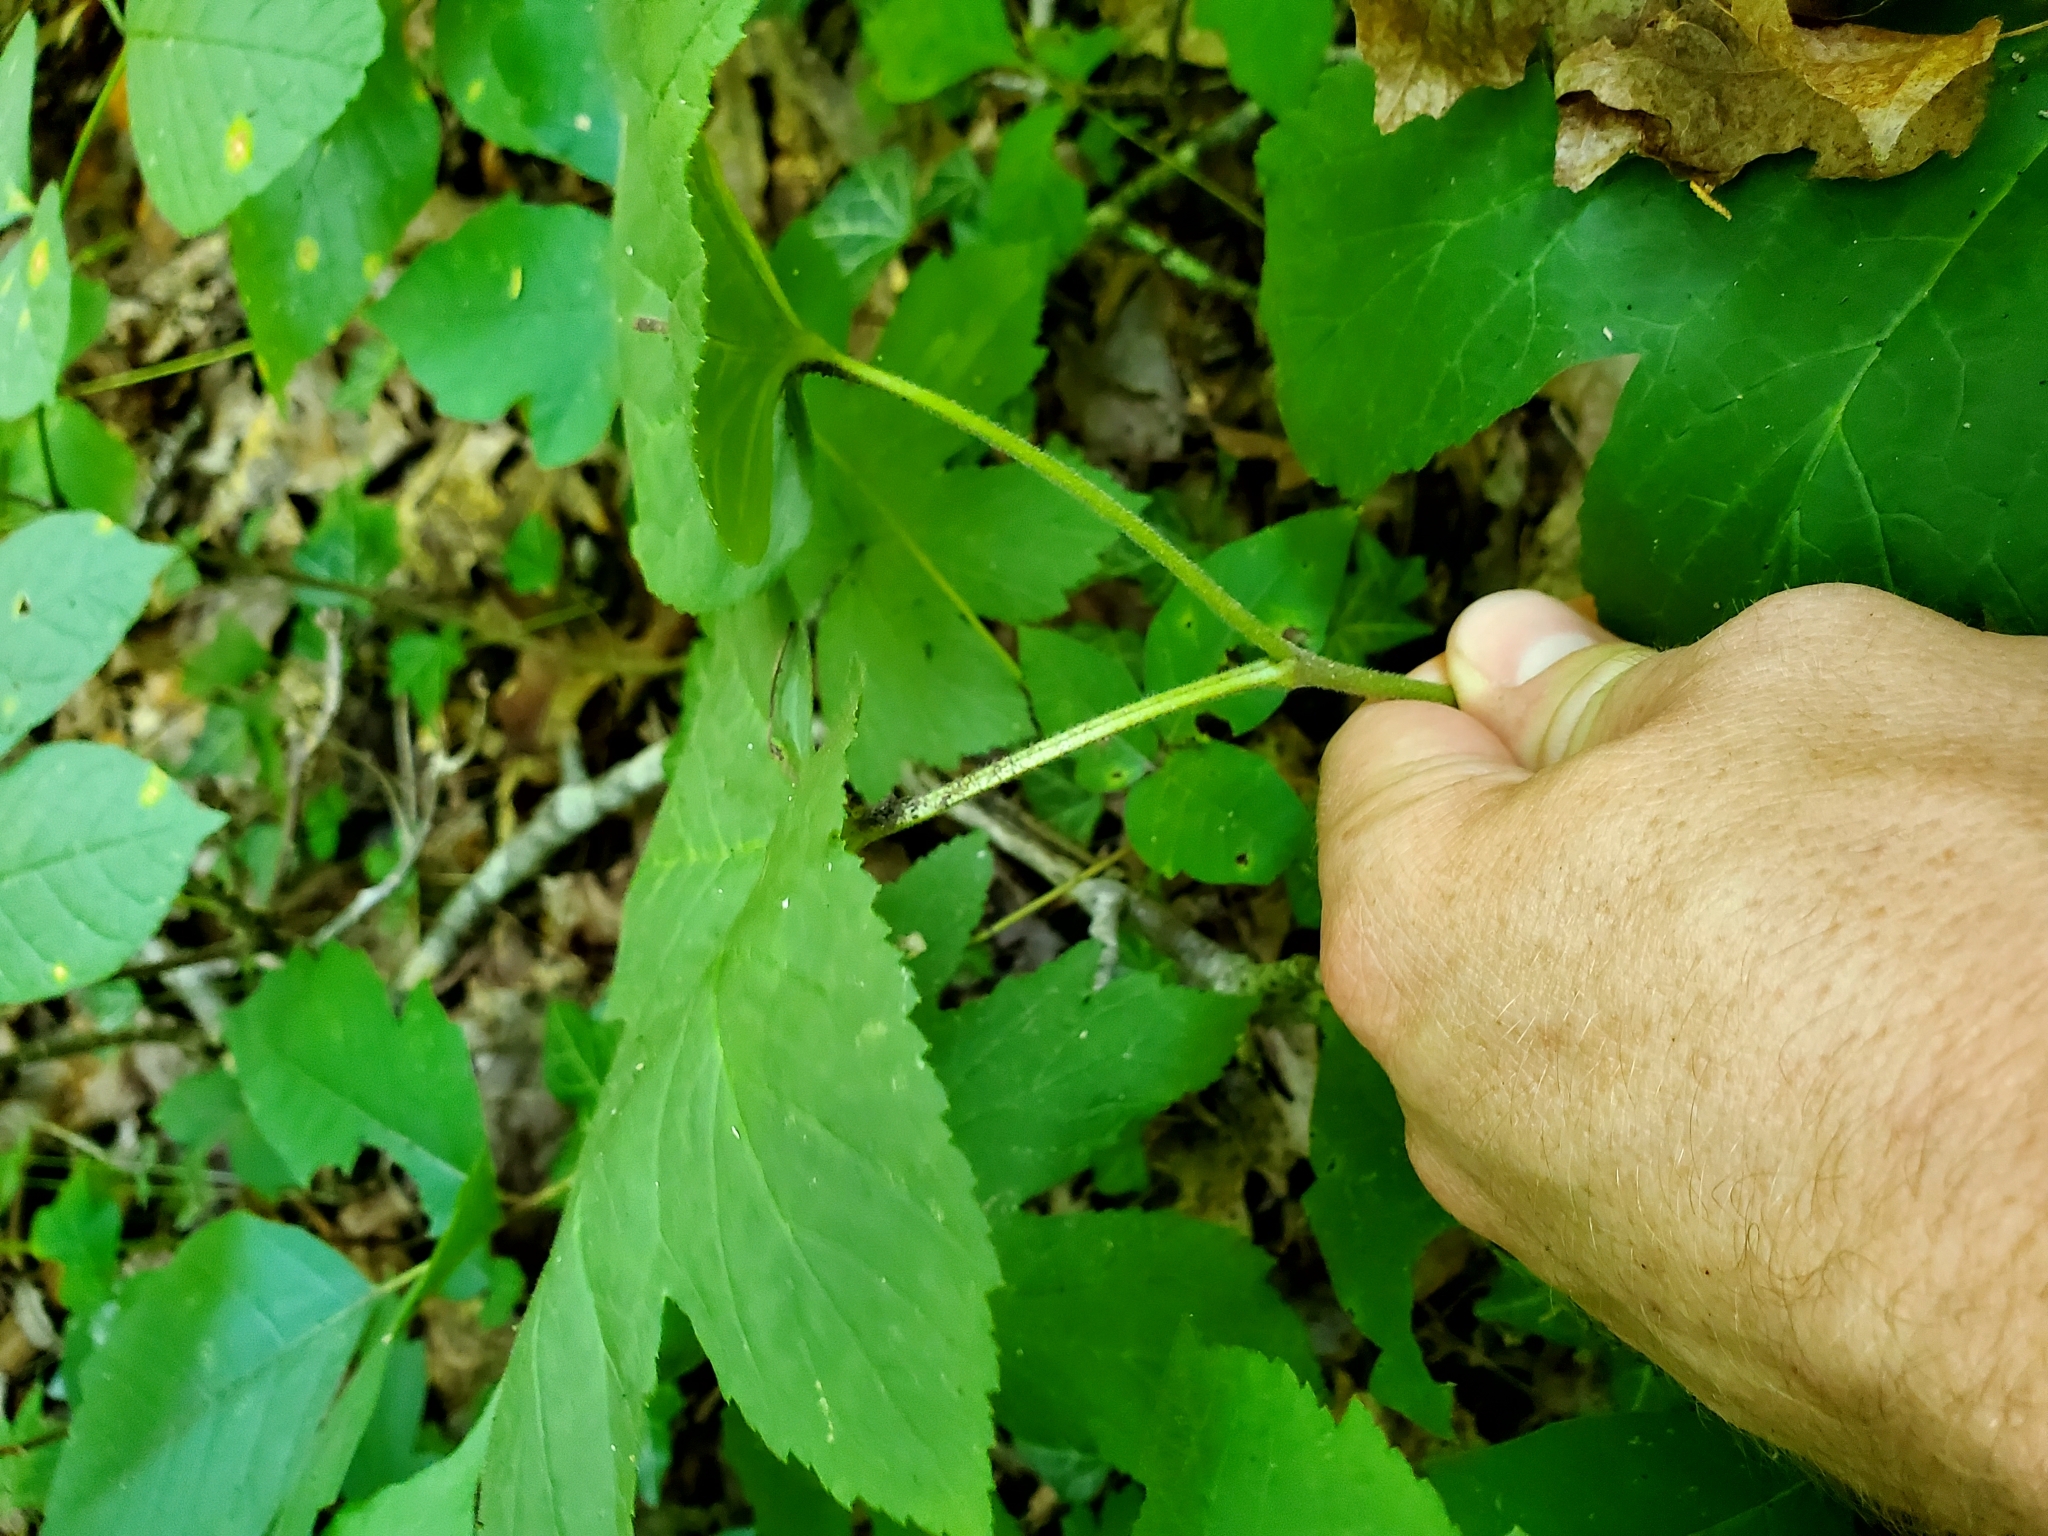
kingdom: Plantae
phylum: Tracheophyta
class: Magnoliopsida
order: Ranunculales
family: Ranunculaceae
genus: Hydrastis
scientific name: Hydrastis canadensis
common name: Goldenseal
